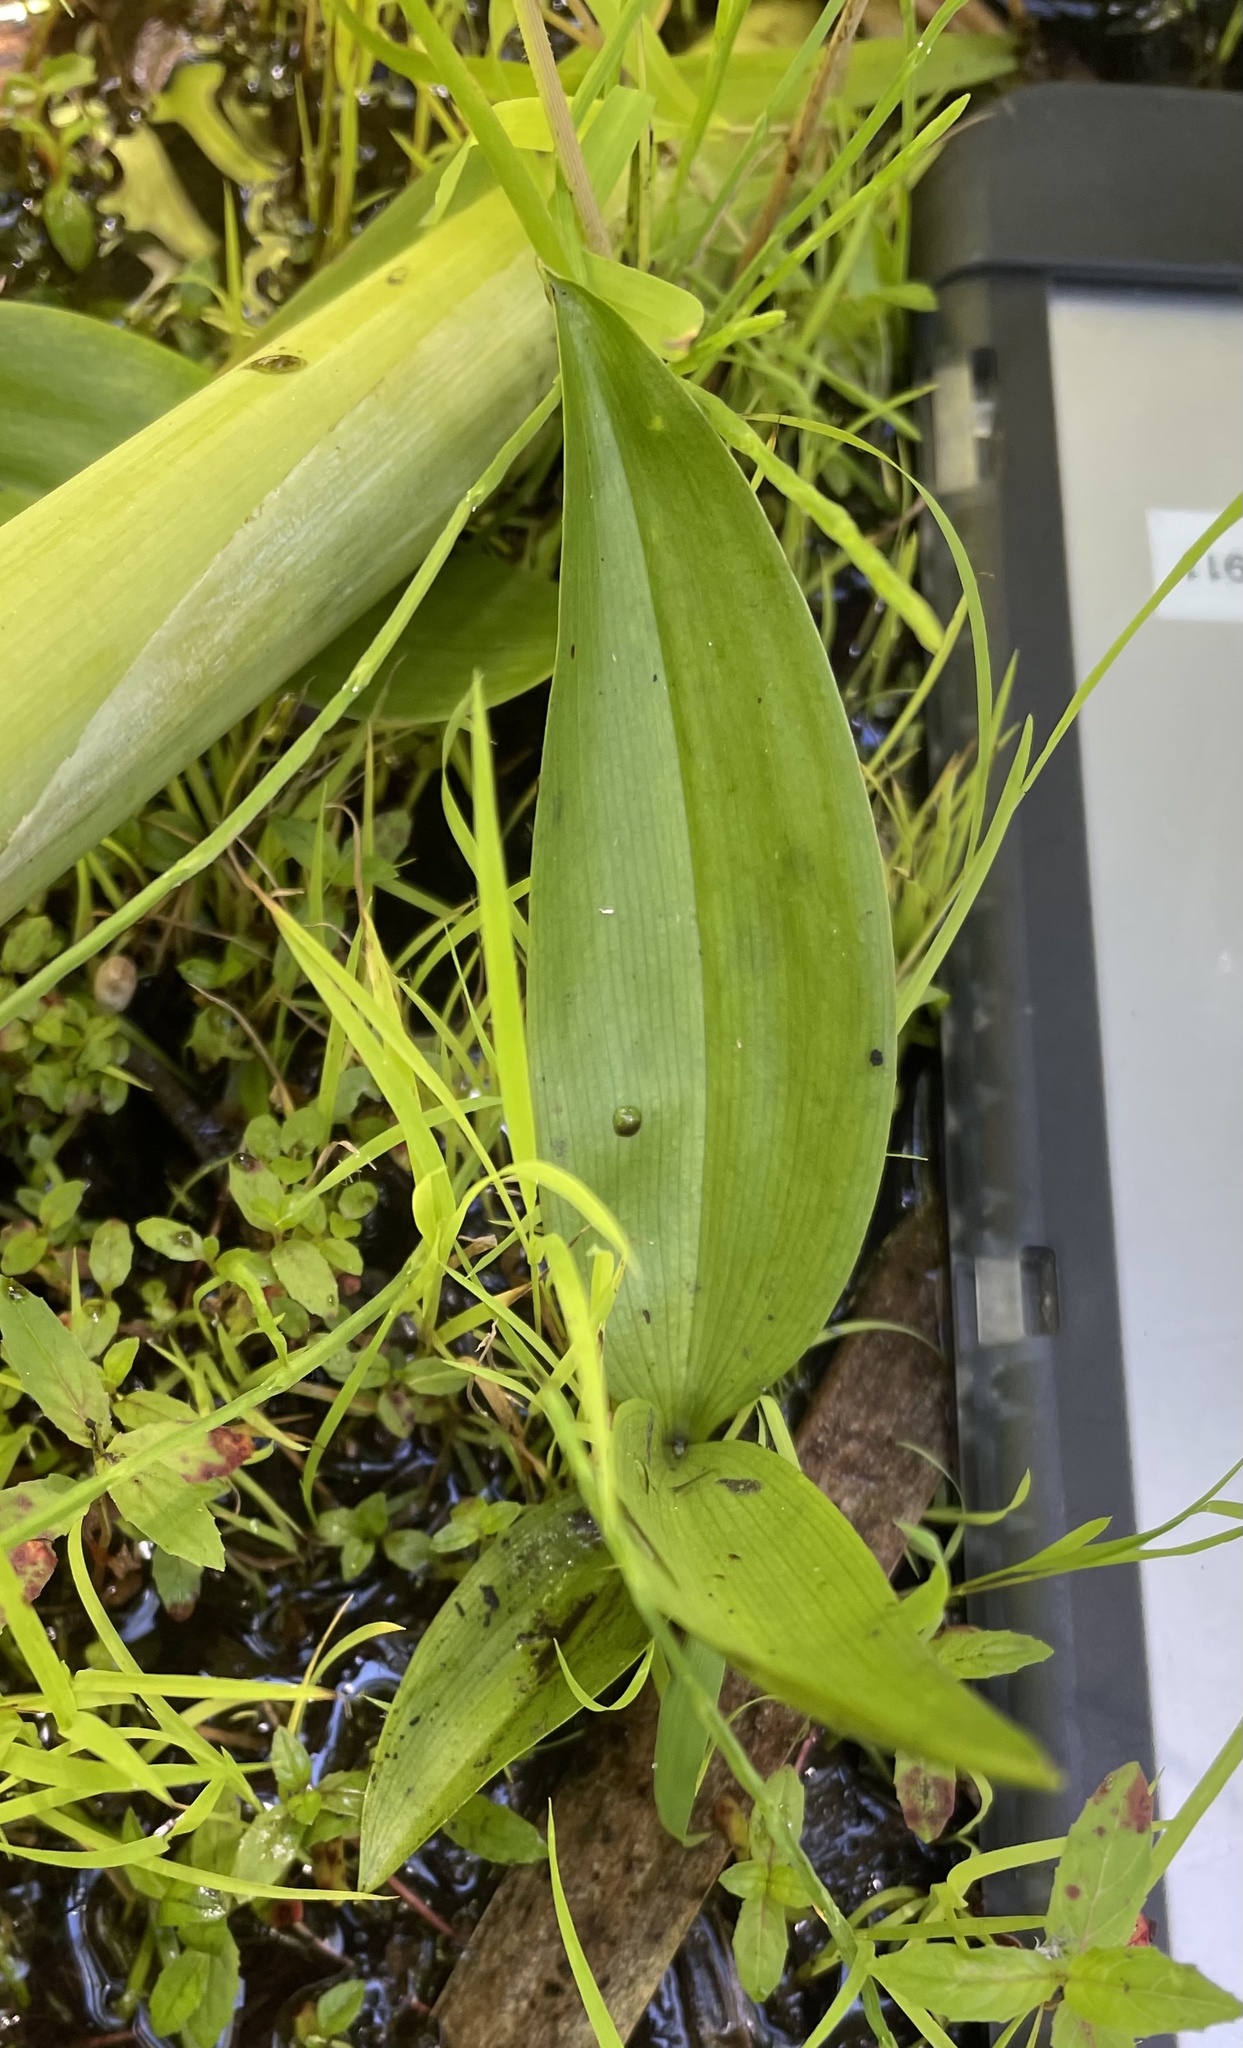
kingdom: Plantae
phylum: Tracheophyta
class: Liliopsida
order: Asparagales
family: Asparagaceae
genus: Maianthemum
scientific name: Maianthemum trifolium
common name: Swamp false solomon's seal
